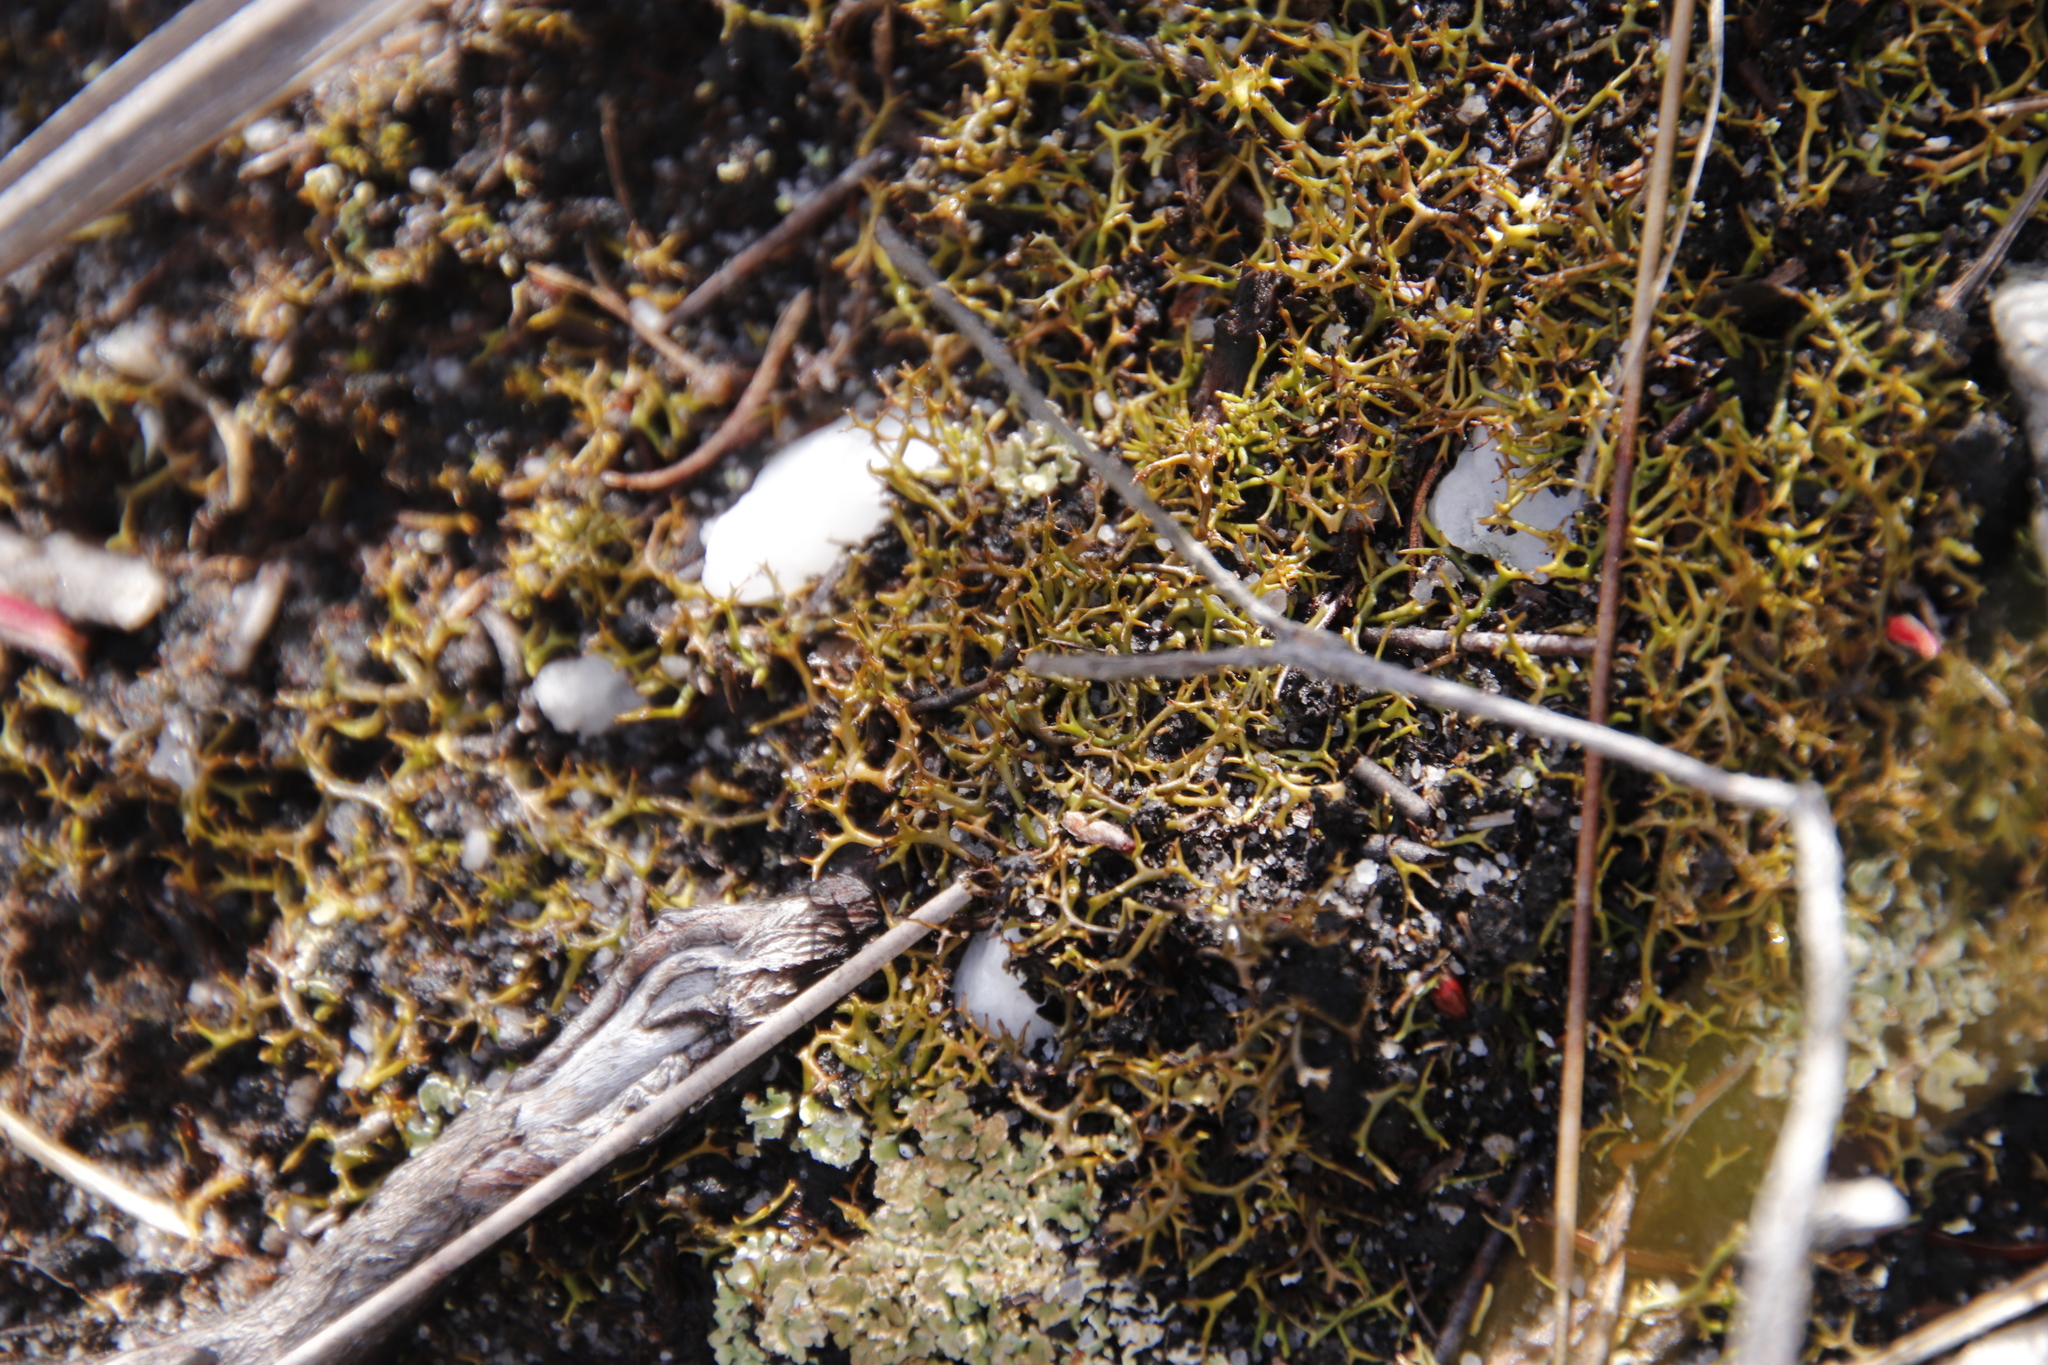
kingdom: Fungi
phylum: Ascomycota
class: Lecanoromycetes
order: Lecanorales
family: Cladoniaceae
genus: Cladia
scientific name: Cladia aggregata
